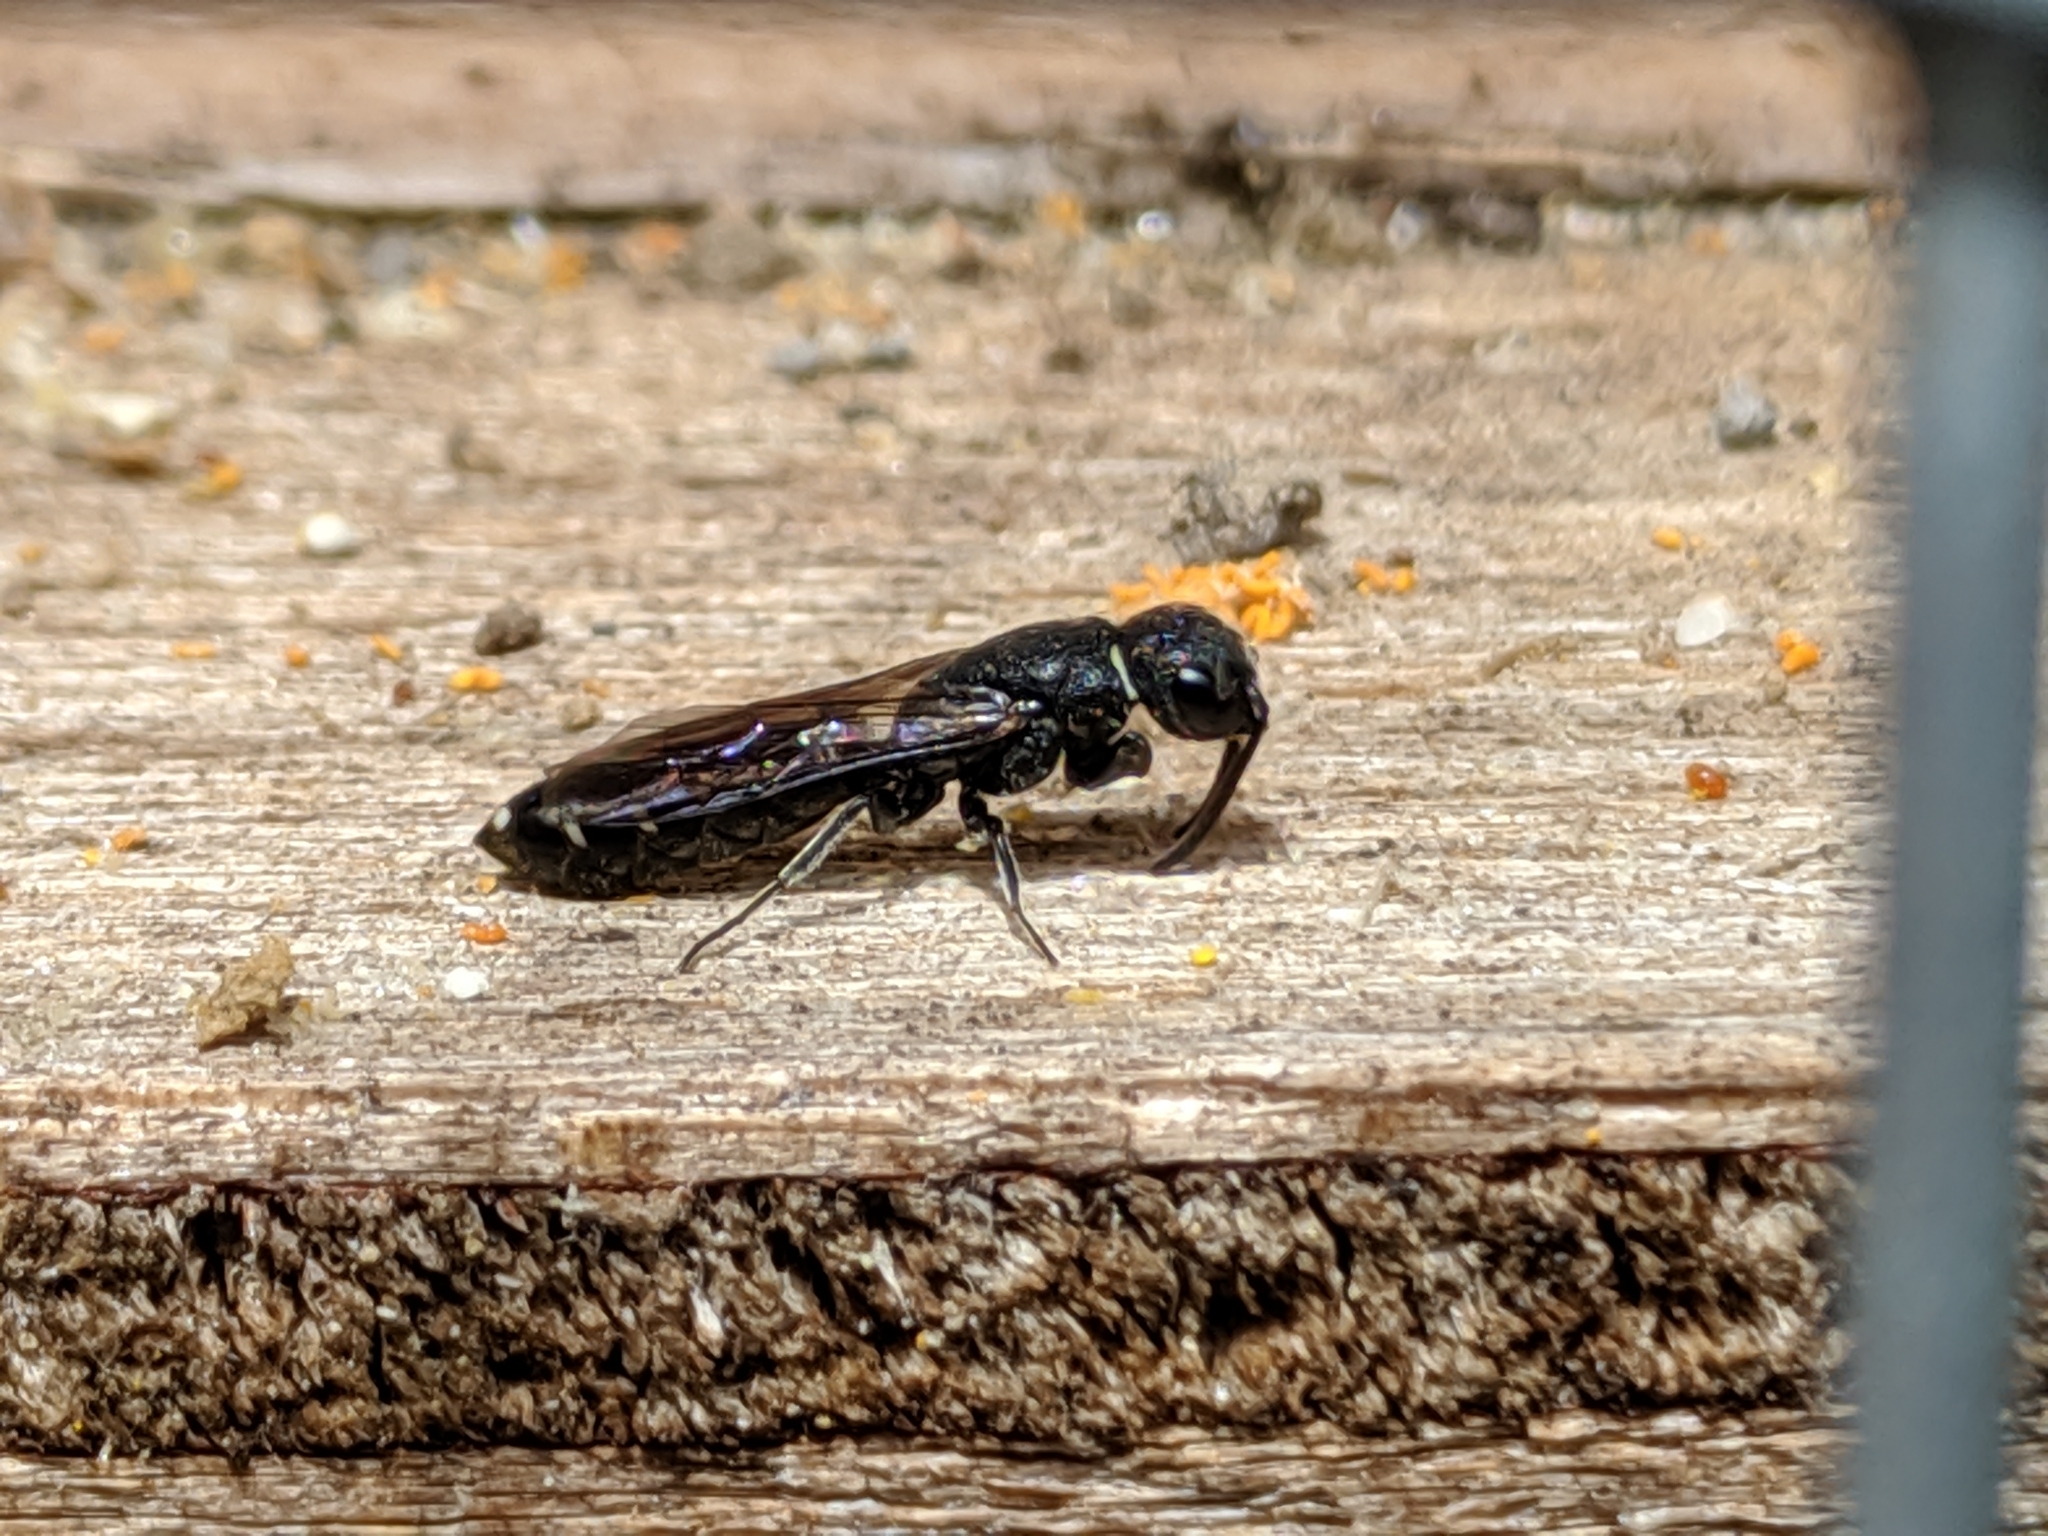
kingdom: Animalia
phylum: Arthropoda
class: Insecta
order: Hymenoptera
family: Sapygidae
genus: Sapygina
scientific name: Sapygina decemguttata
